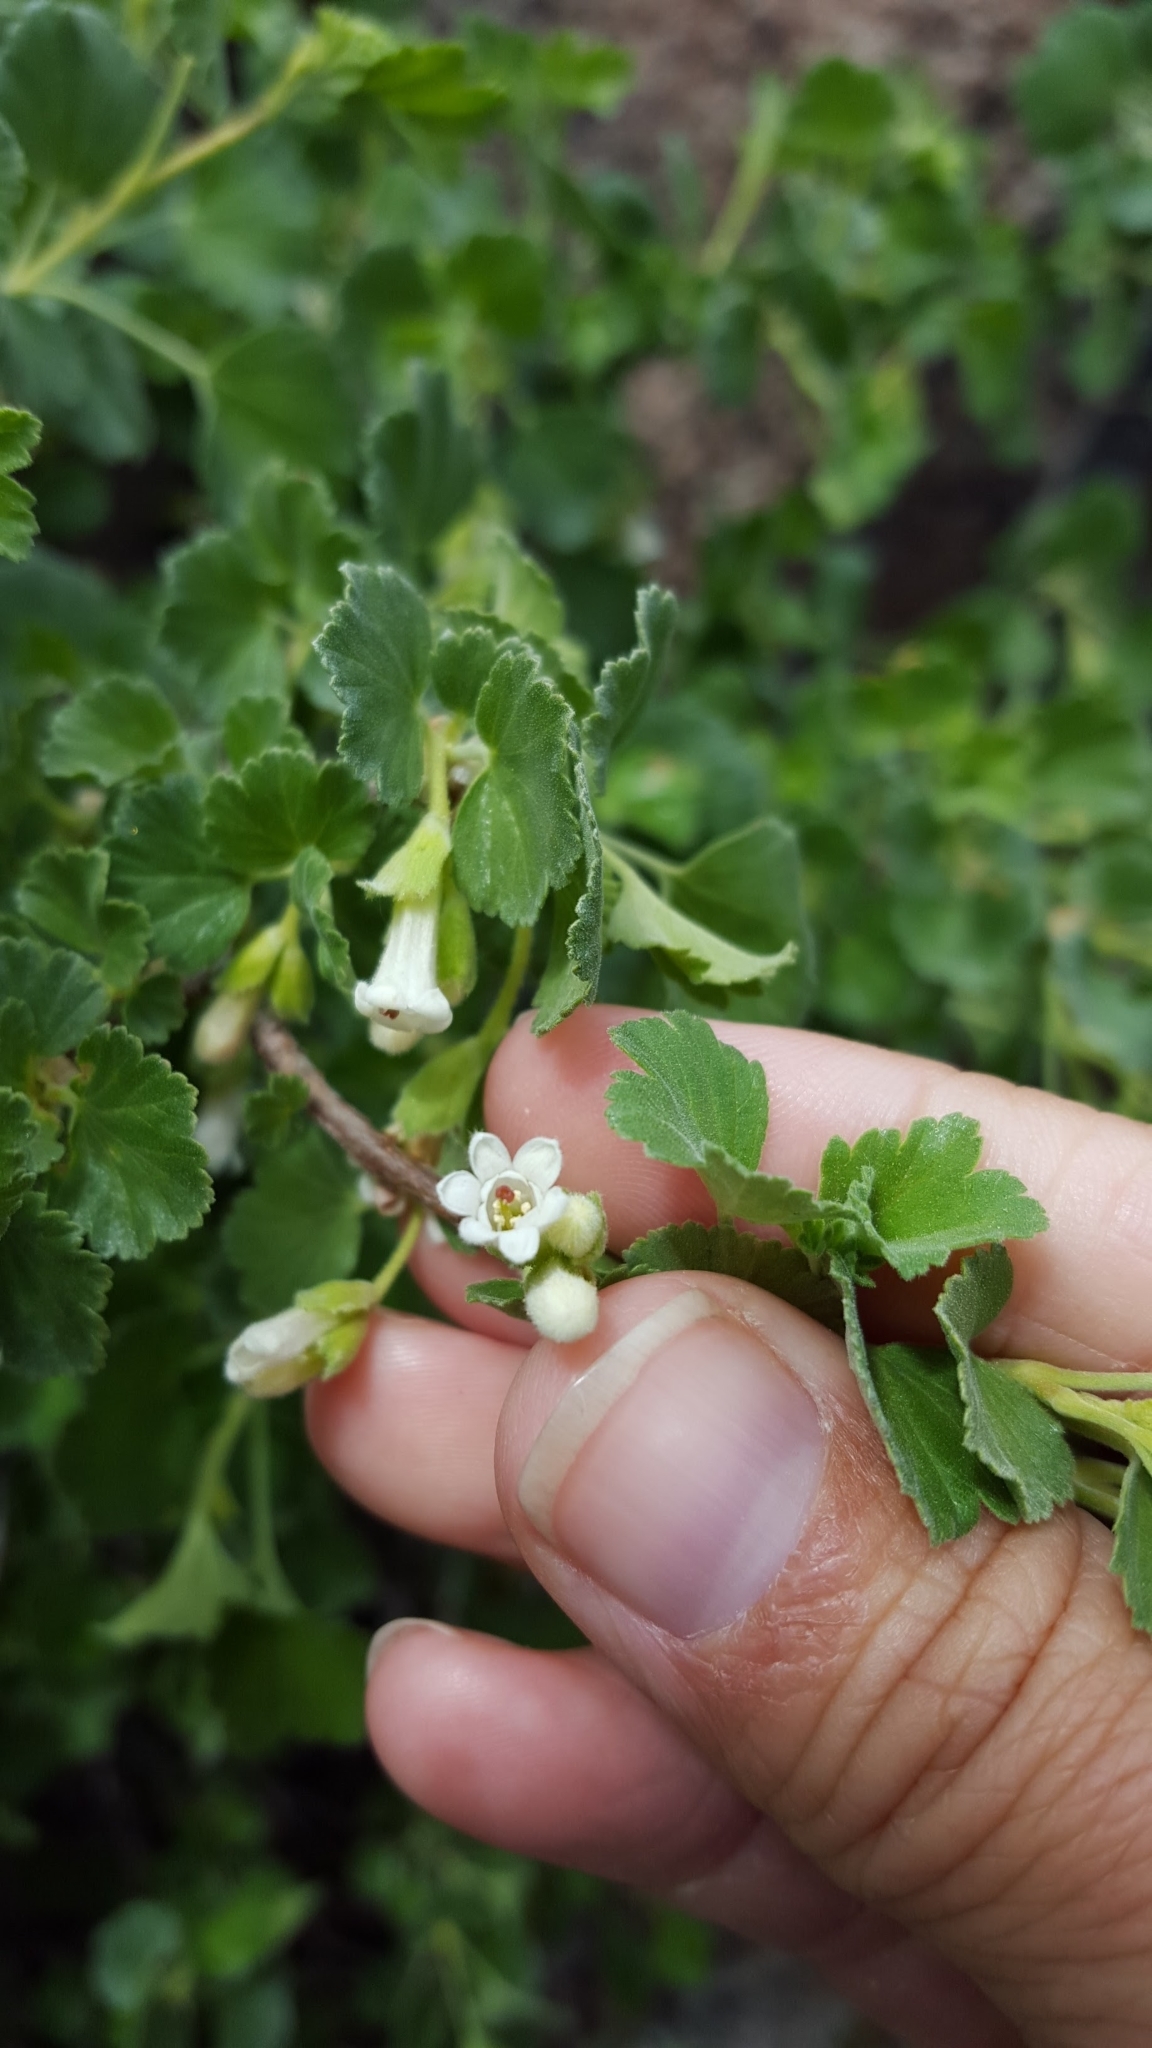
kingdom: Plantae
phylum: Tracheophyta
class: Magnoliopsida
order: Saxifragales
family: Grossulariaceae
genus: Ribes
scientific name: Ribes cereum
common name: Wax currant
